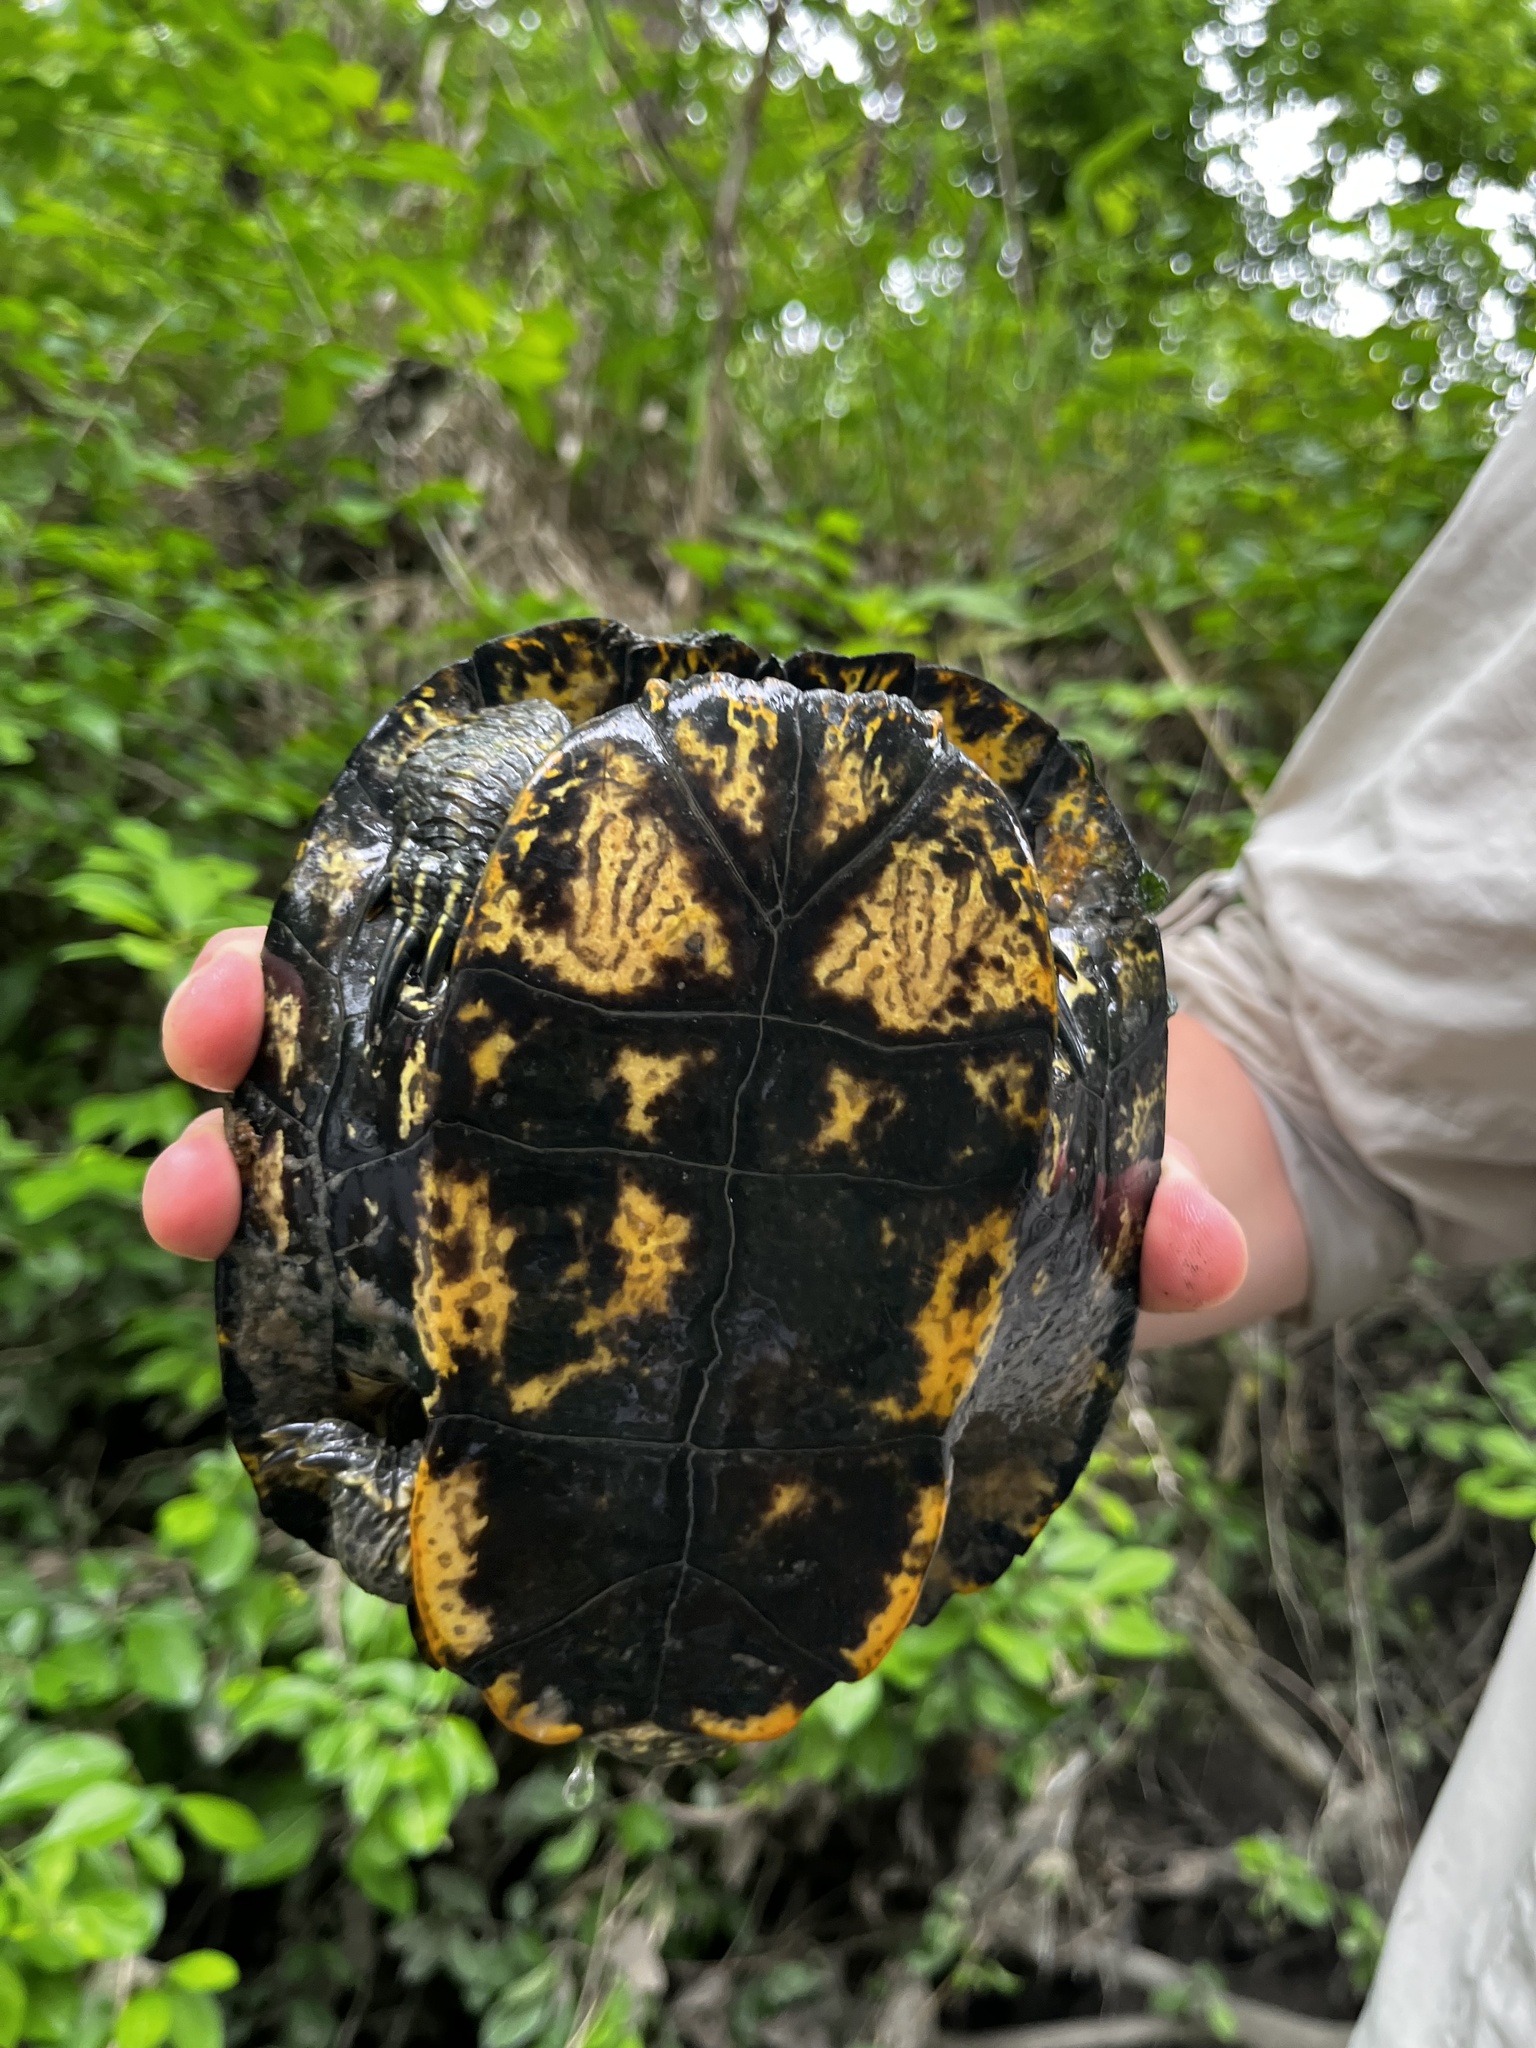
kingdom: Animalia
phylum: Chordata
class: Testudines
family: Emydidae
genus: Trachemys
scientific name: Trachemys scripta
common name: Slider
